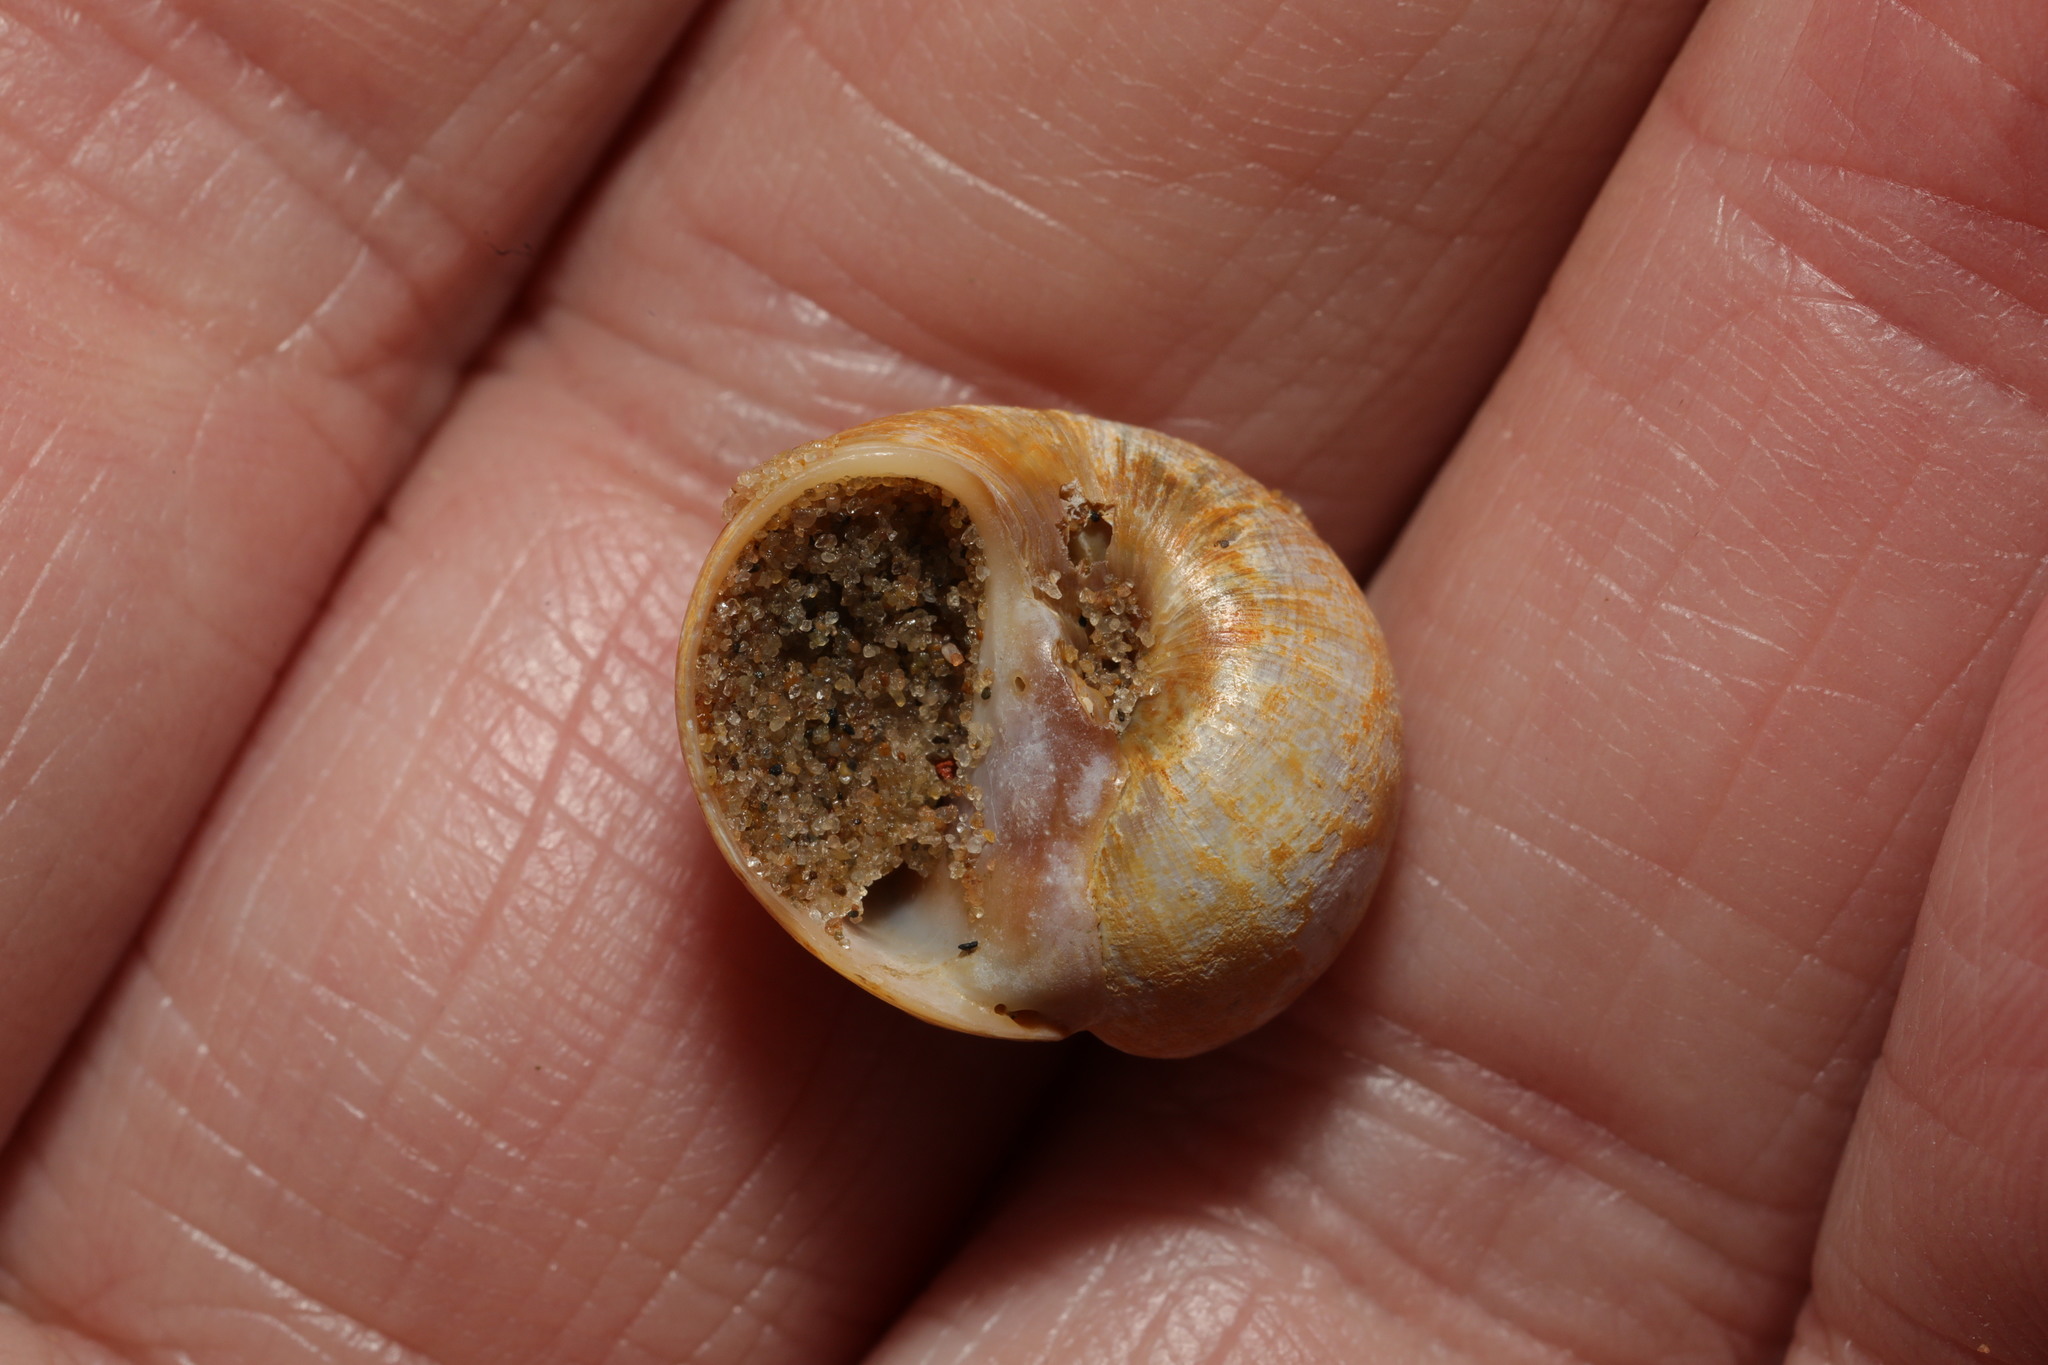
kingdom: Animalia
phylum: Mollusca
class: Gastropoda
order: Littorinimorpha
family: Naticidae
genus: Euspira
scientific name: Euspira catena
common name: Necklace shell
